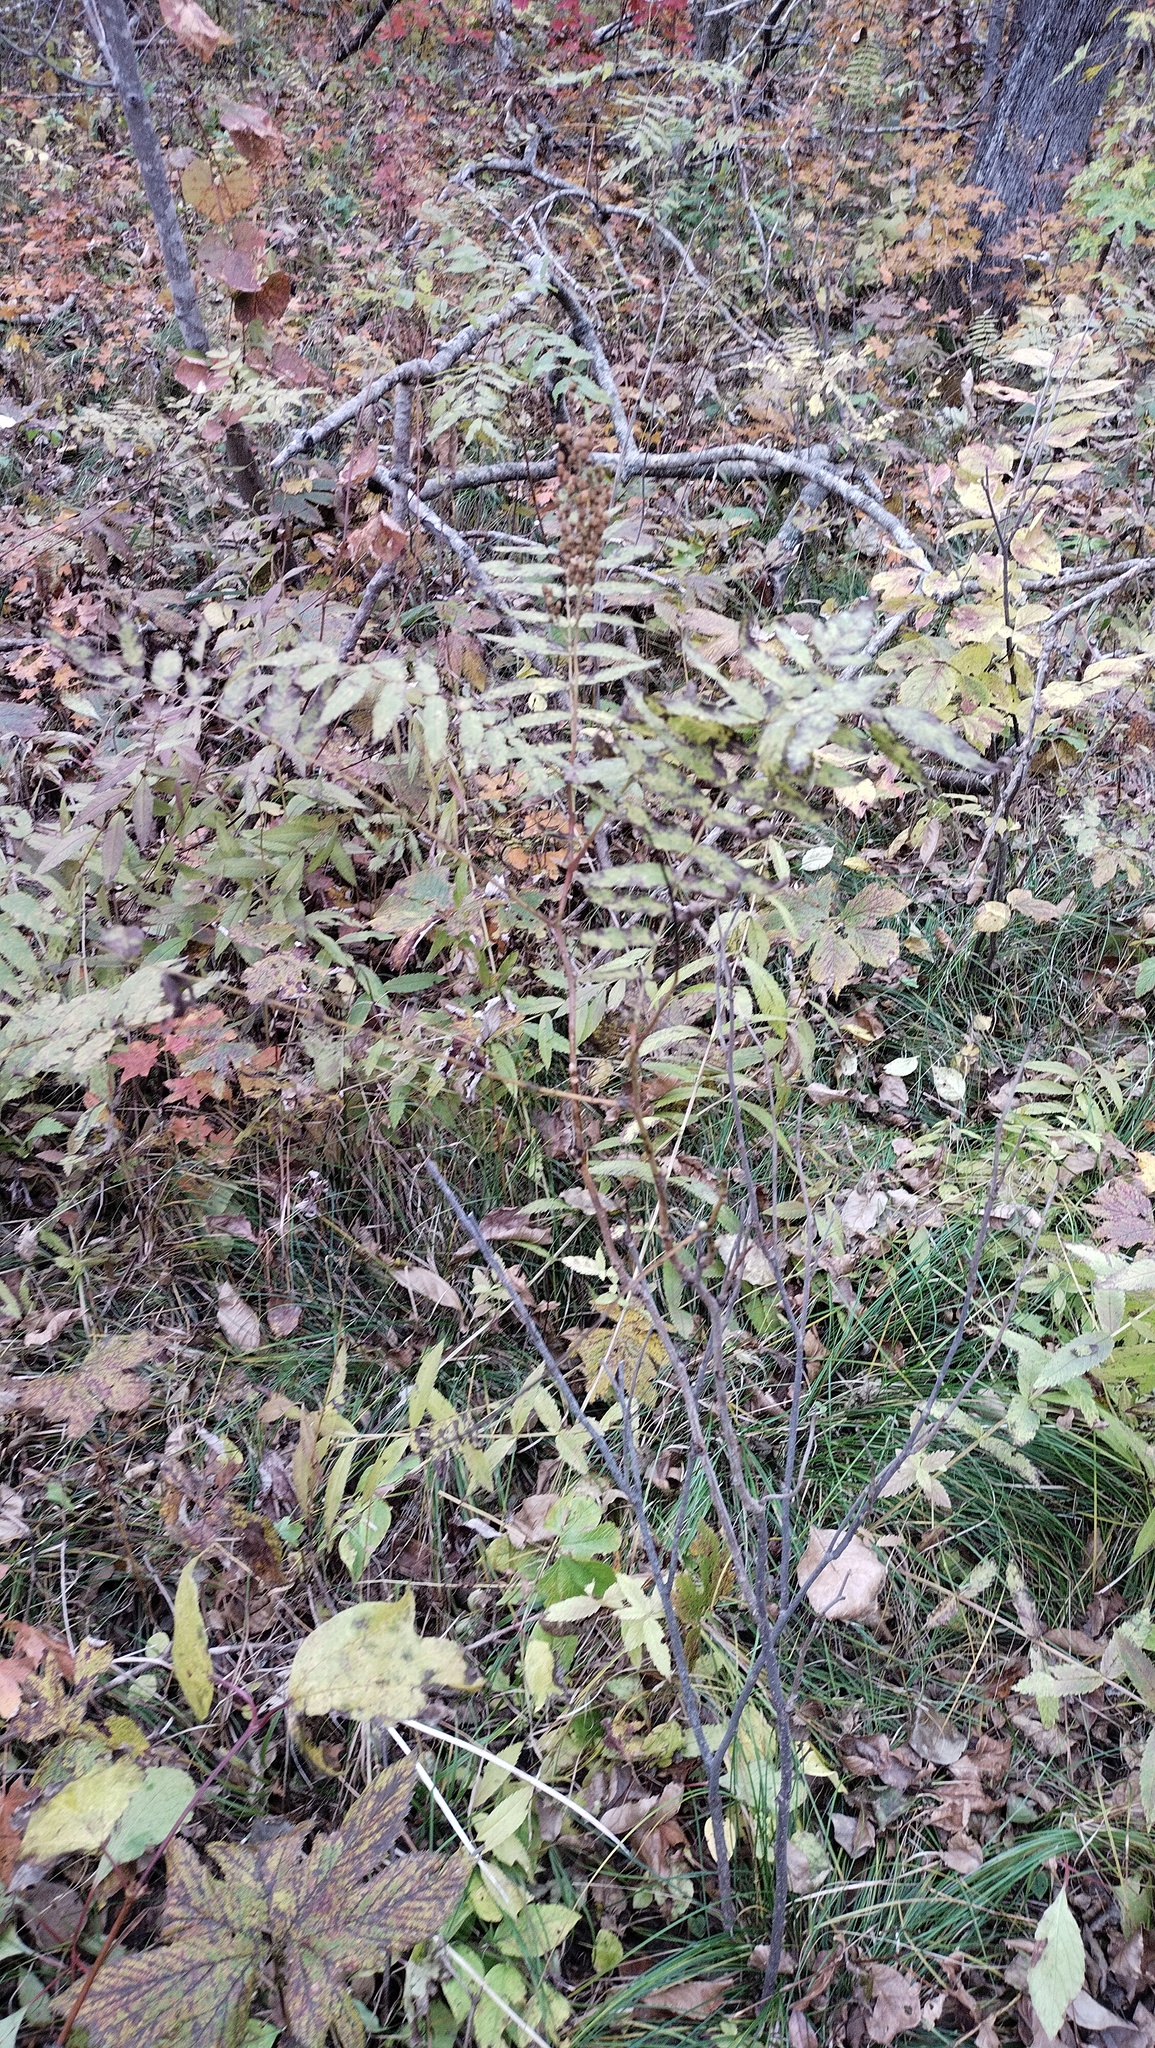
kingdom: Plantae
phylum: Tracheophyta
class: Magnoliopsida
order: Rosales
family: Rosaceae
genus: Sorbaria
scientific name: Sorbaria sorbifolia
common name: False spiraea
